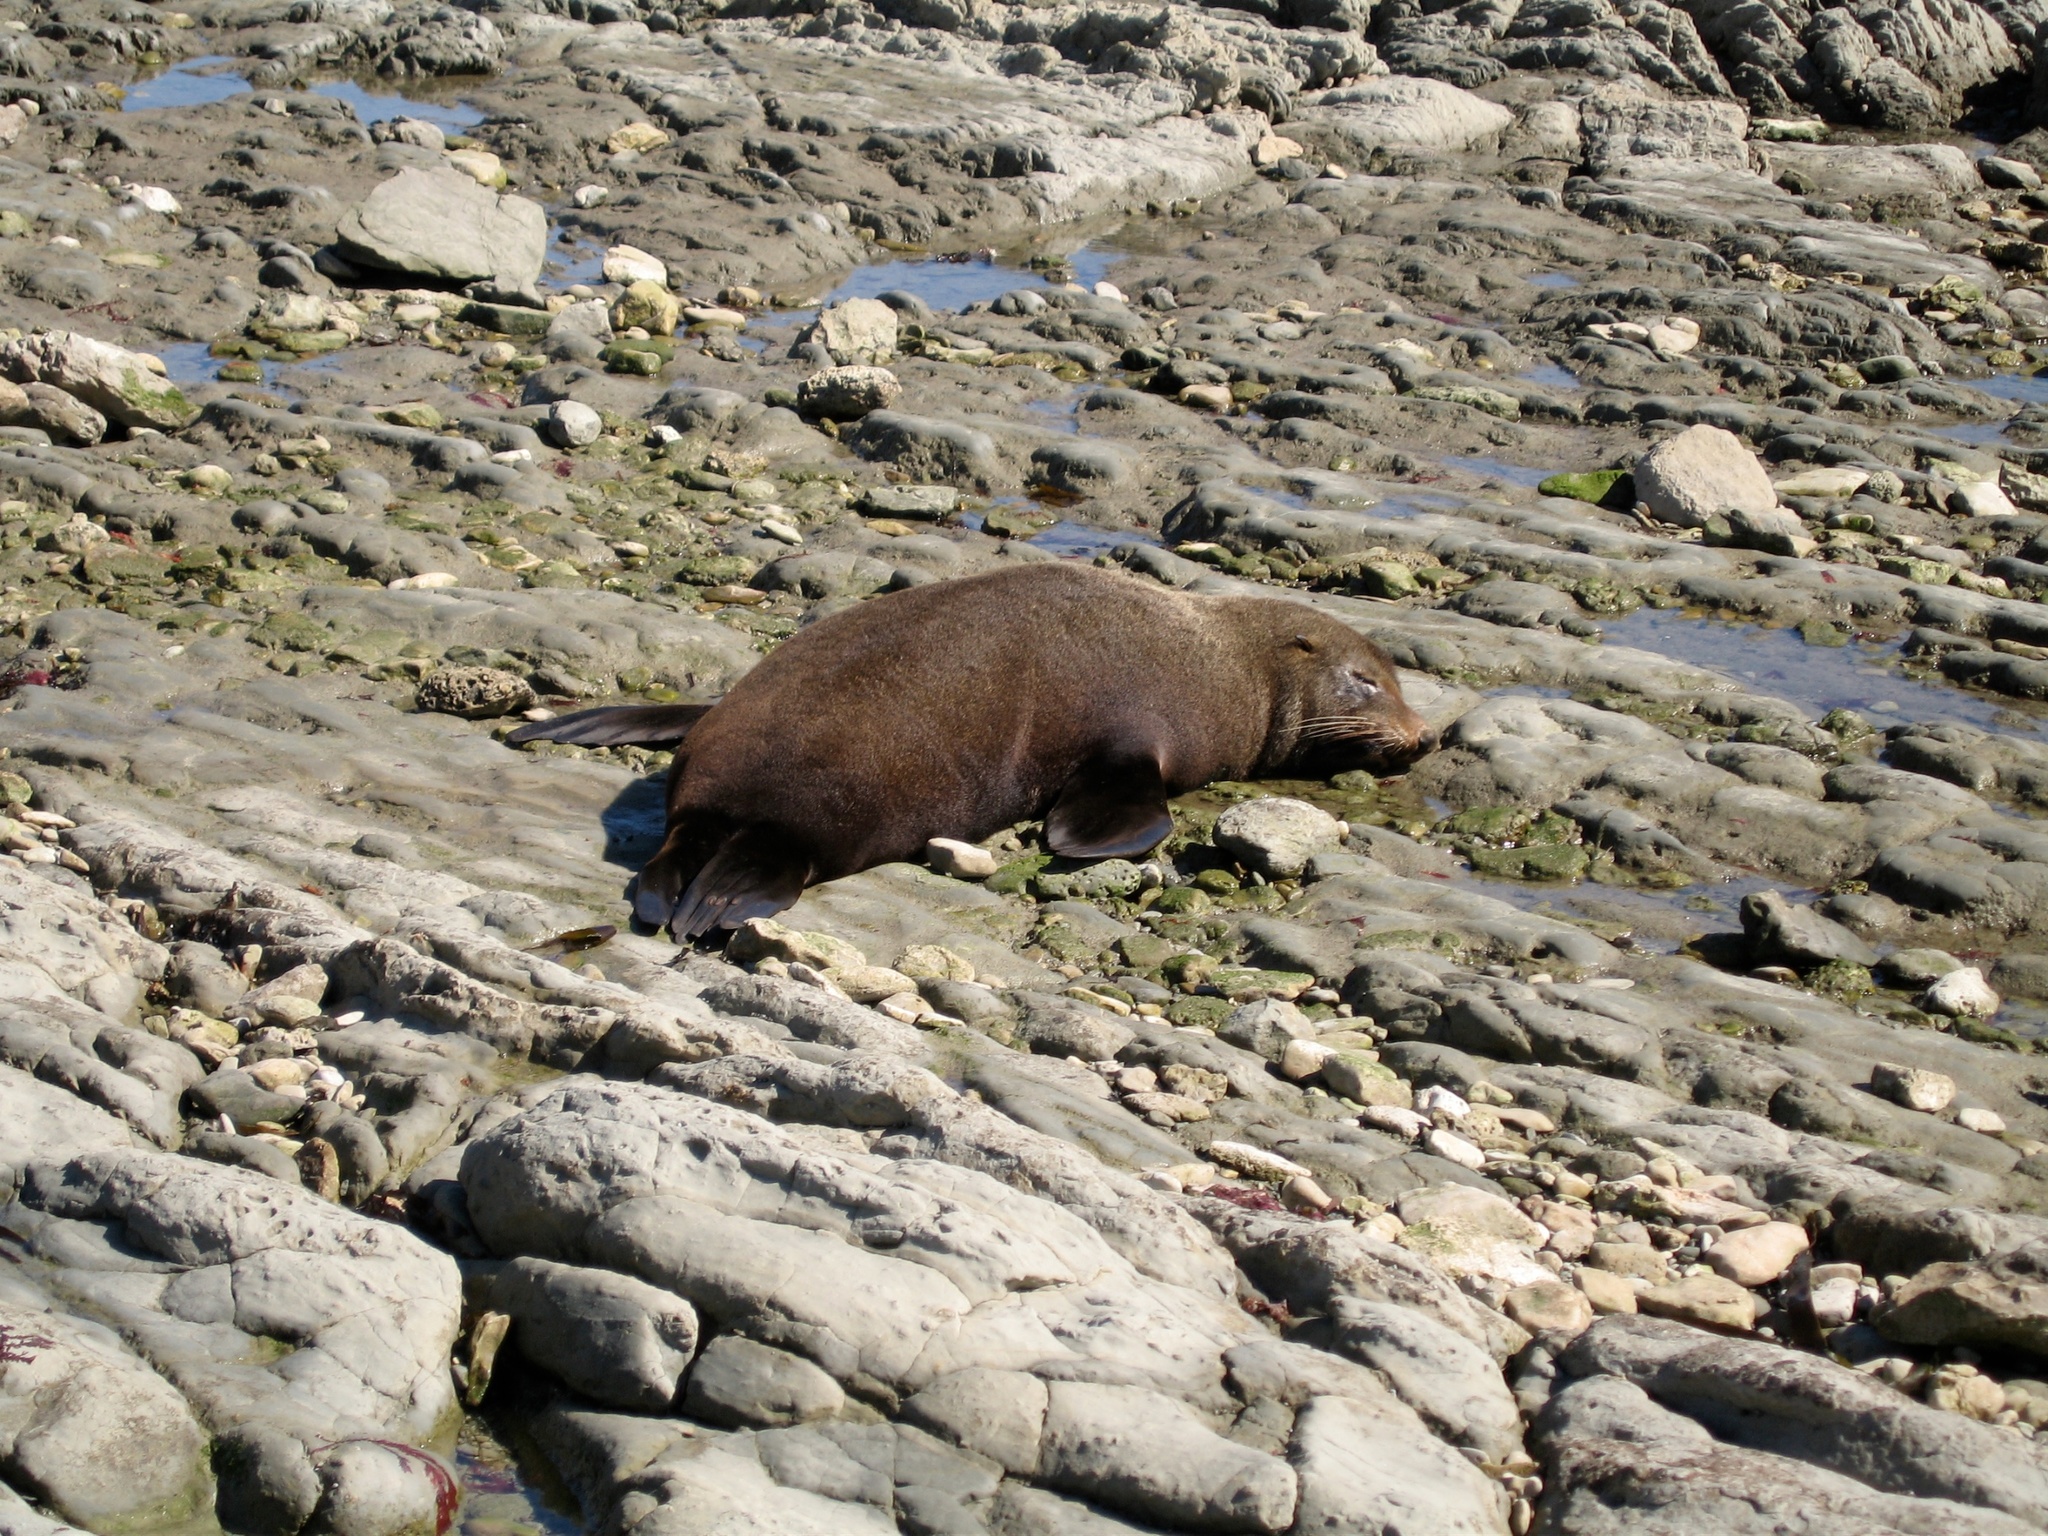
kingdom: Animalia
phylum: Chordata
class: Mammalia
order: Carnivora
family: Otariidae
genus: Arctocephalus
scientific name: Arctocephalus forsteri
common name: New zealand fur seal
